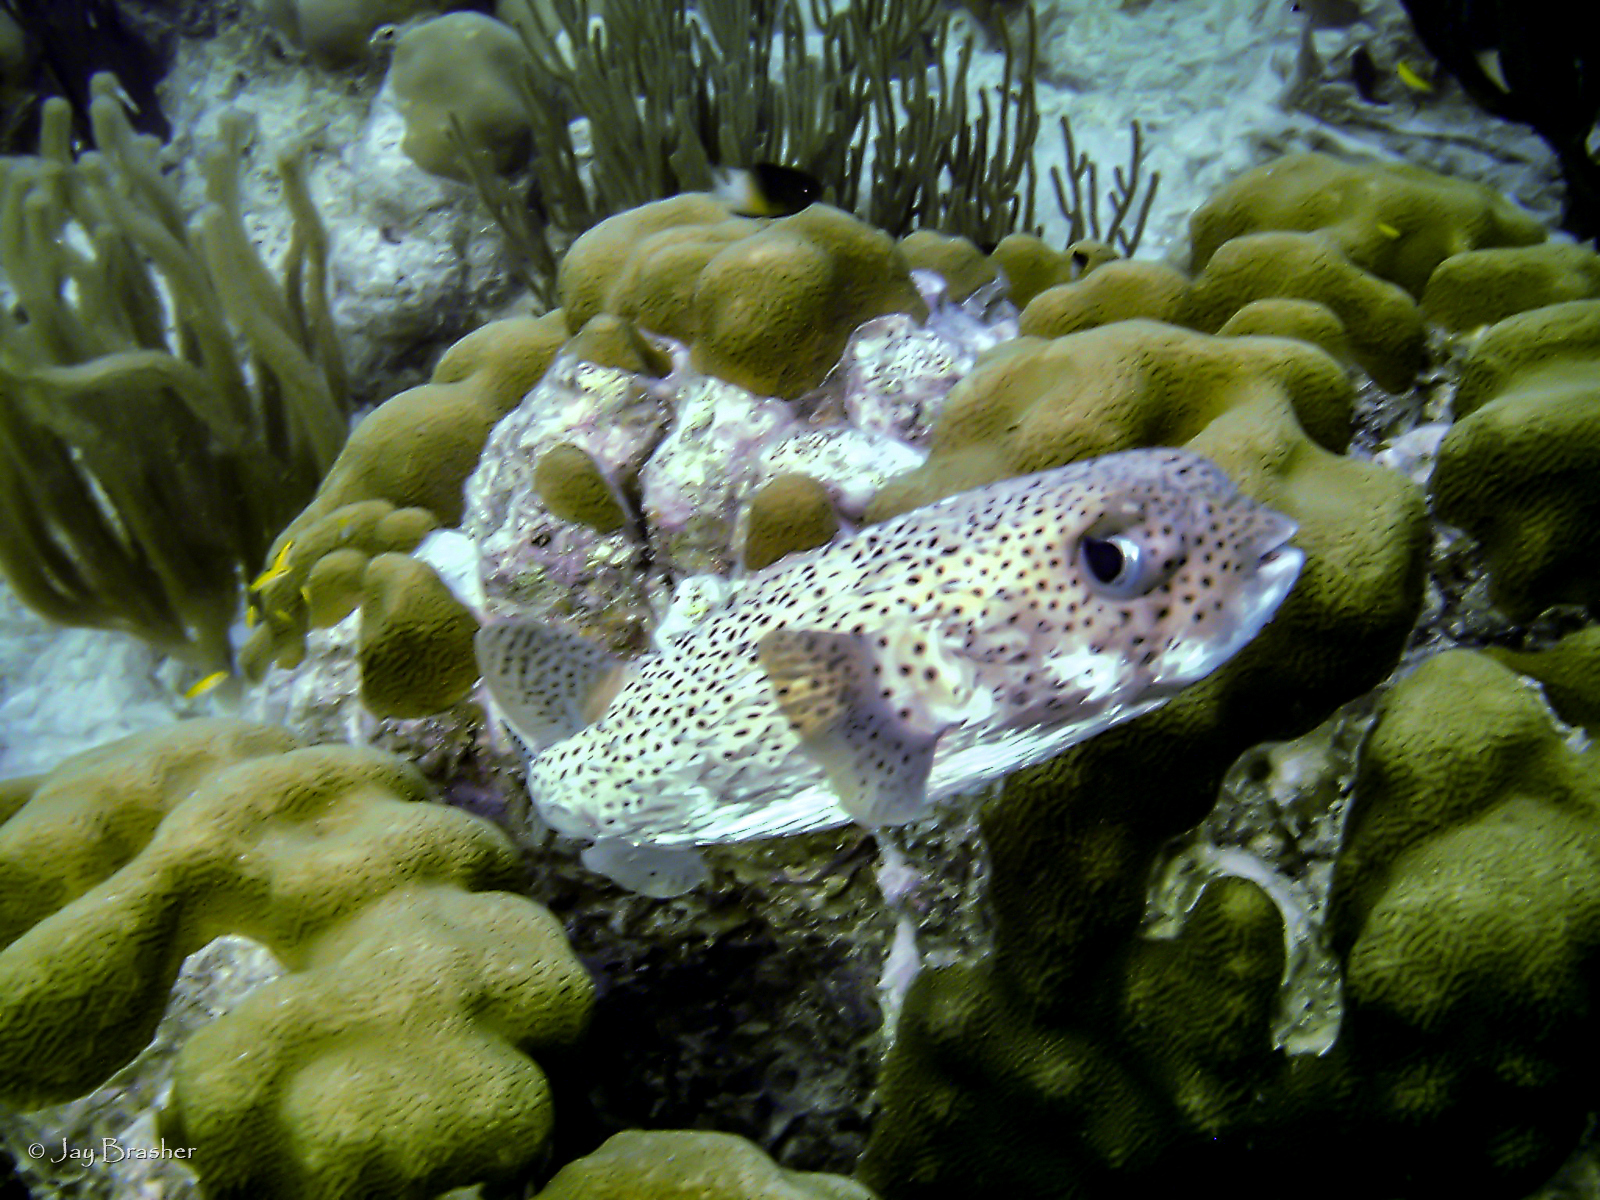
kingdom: Animalia
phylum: Chordata
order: Tetraodontiformes
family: Diodontidae
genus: Diodon
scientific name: Diodon hystrix
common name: Giant porcupinefish
